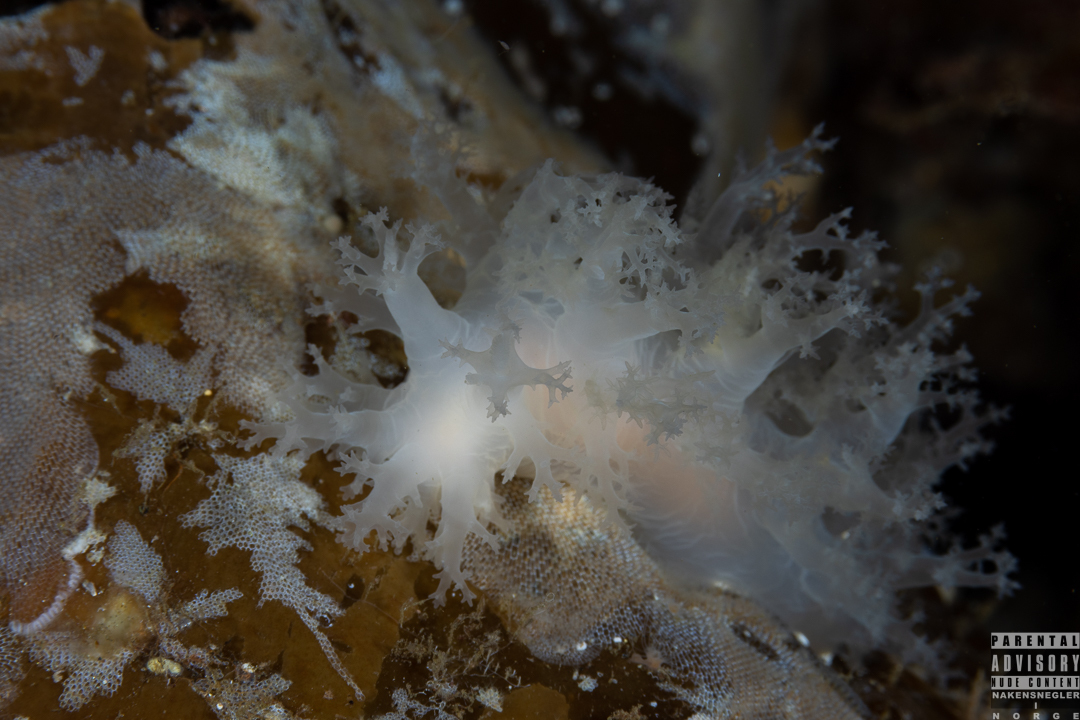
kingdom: Animalia
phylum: Mollusca
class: Gastropoda
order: Nudibranchia
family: Dendronotidae
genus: Dendronotus
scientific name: Dendronotus lacteus
